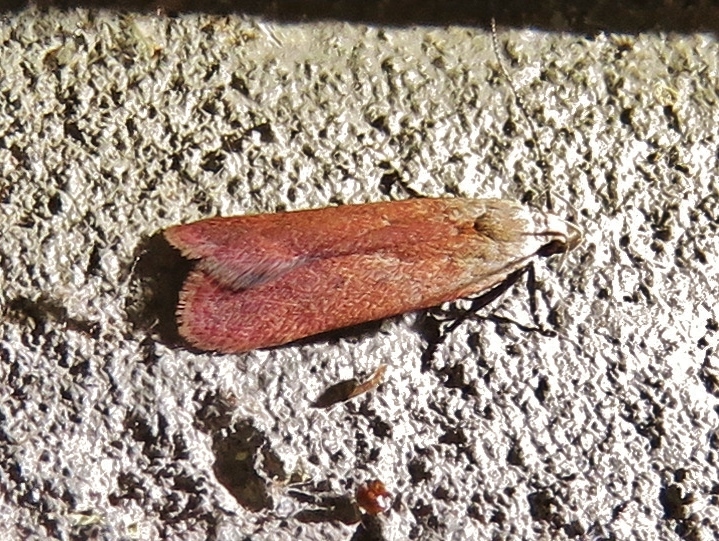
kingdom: Animalia
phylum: Arthropoda
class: Insecta
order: Lepidoptera
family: Gelechiidae
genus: Anacampsis
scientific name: Anacampsis fullonella
